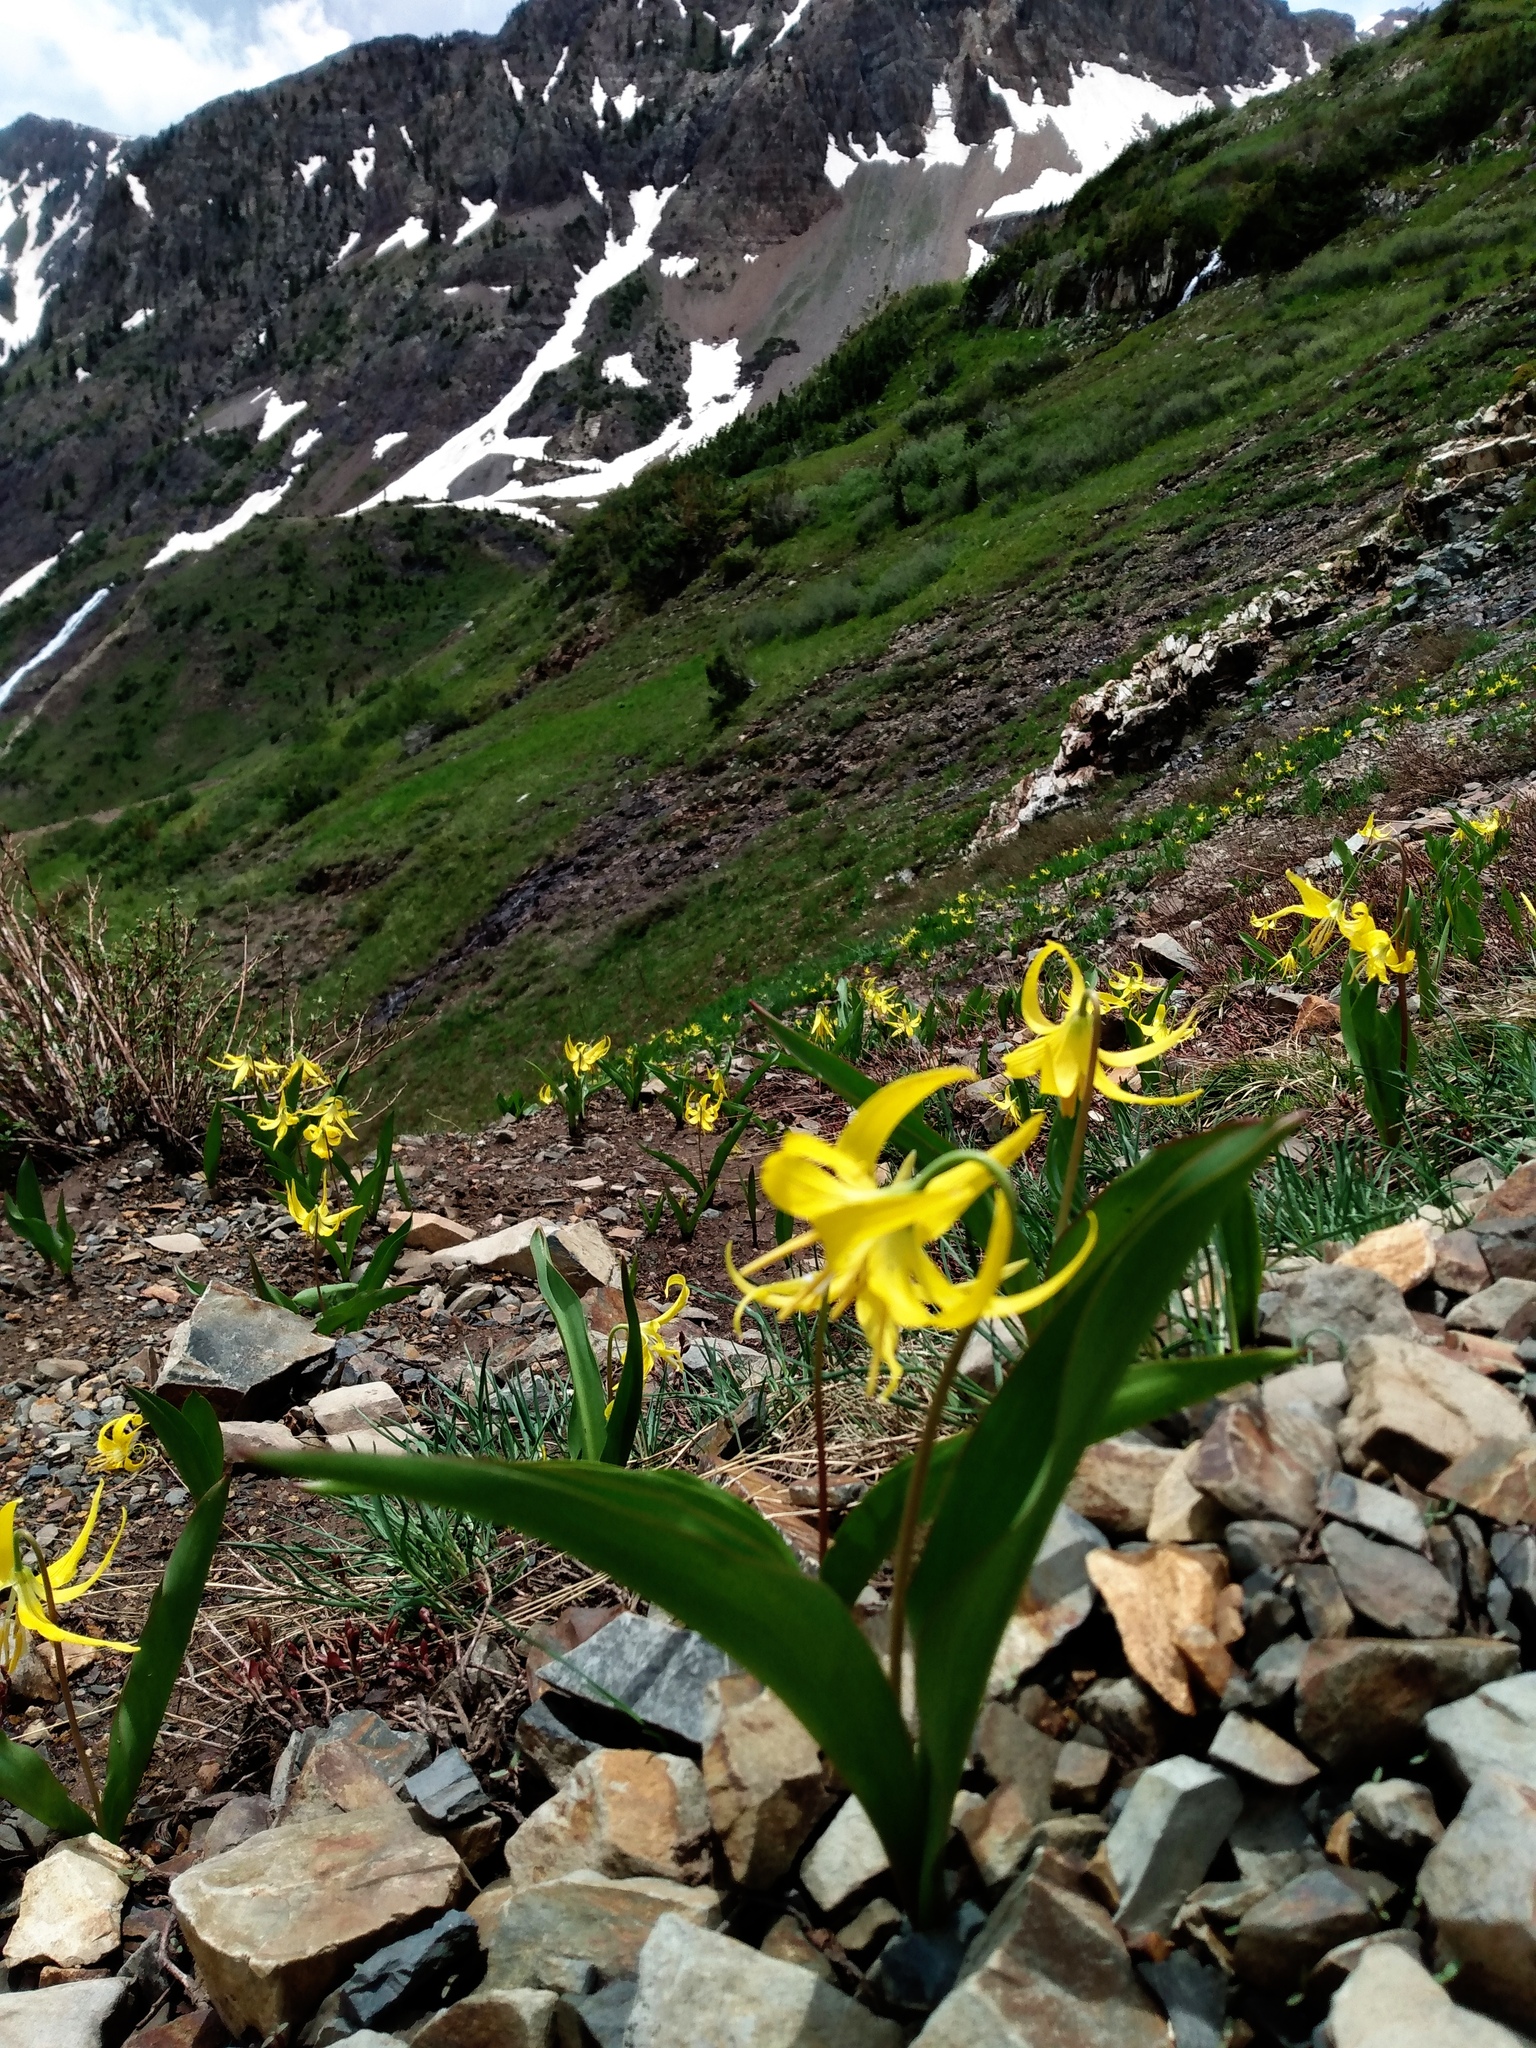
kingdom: Plantae
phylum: Tracheophyta
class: Liliopsida
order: Liliales
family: Liliaceae
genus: Erythronium
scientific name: Erythronium grandiflorum
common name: Avalanche-lily
